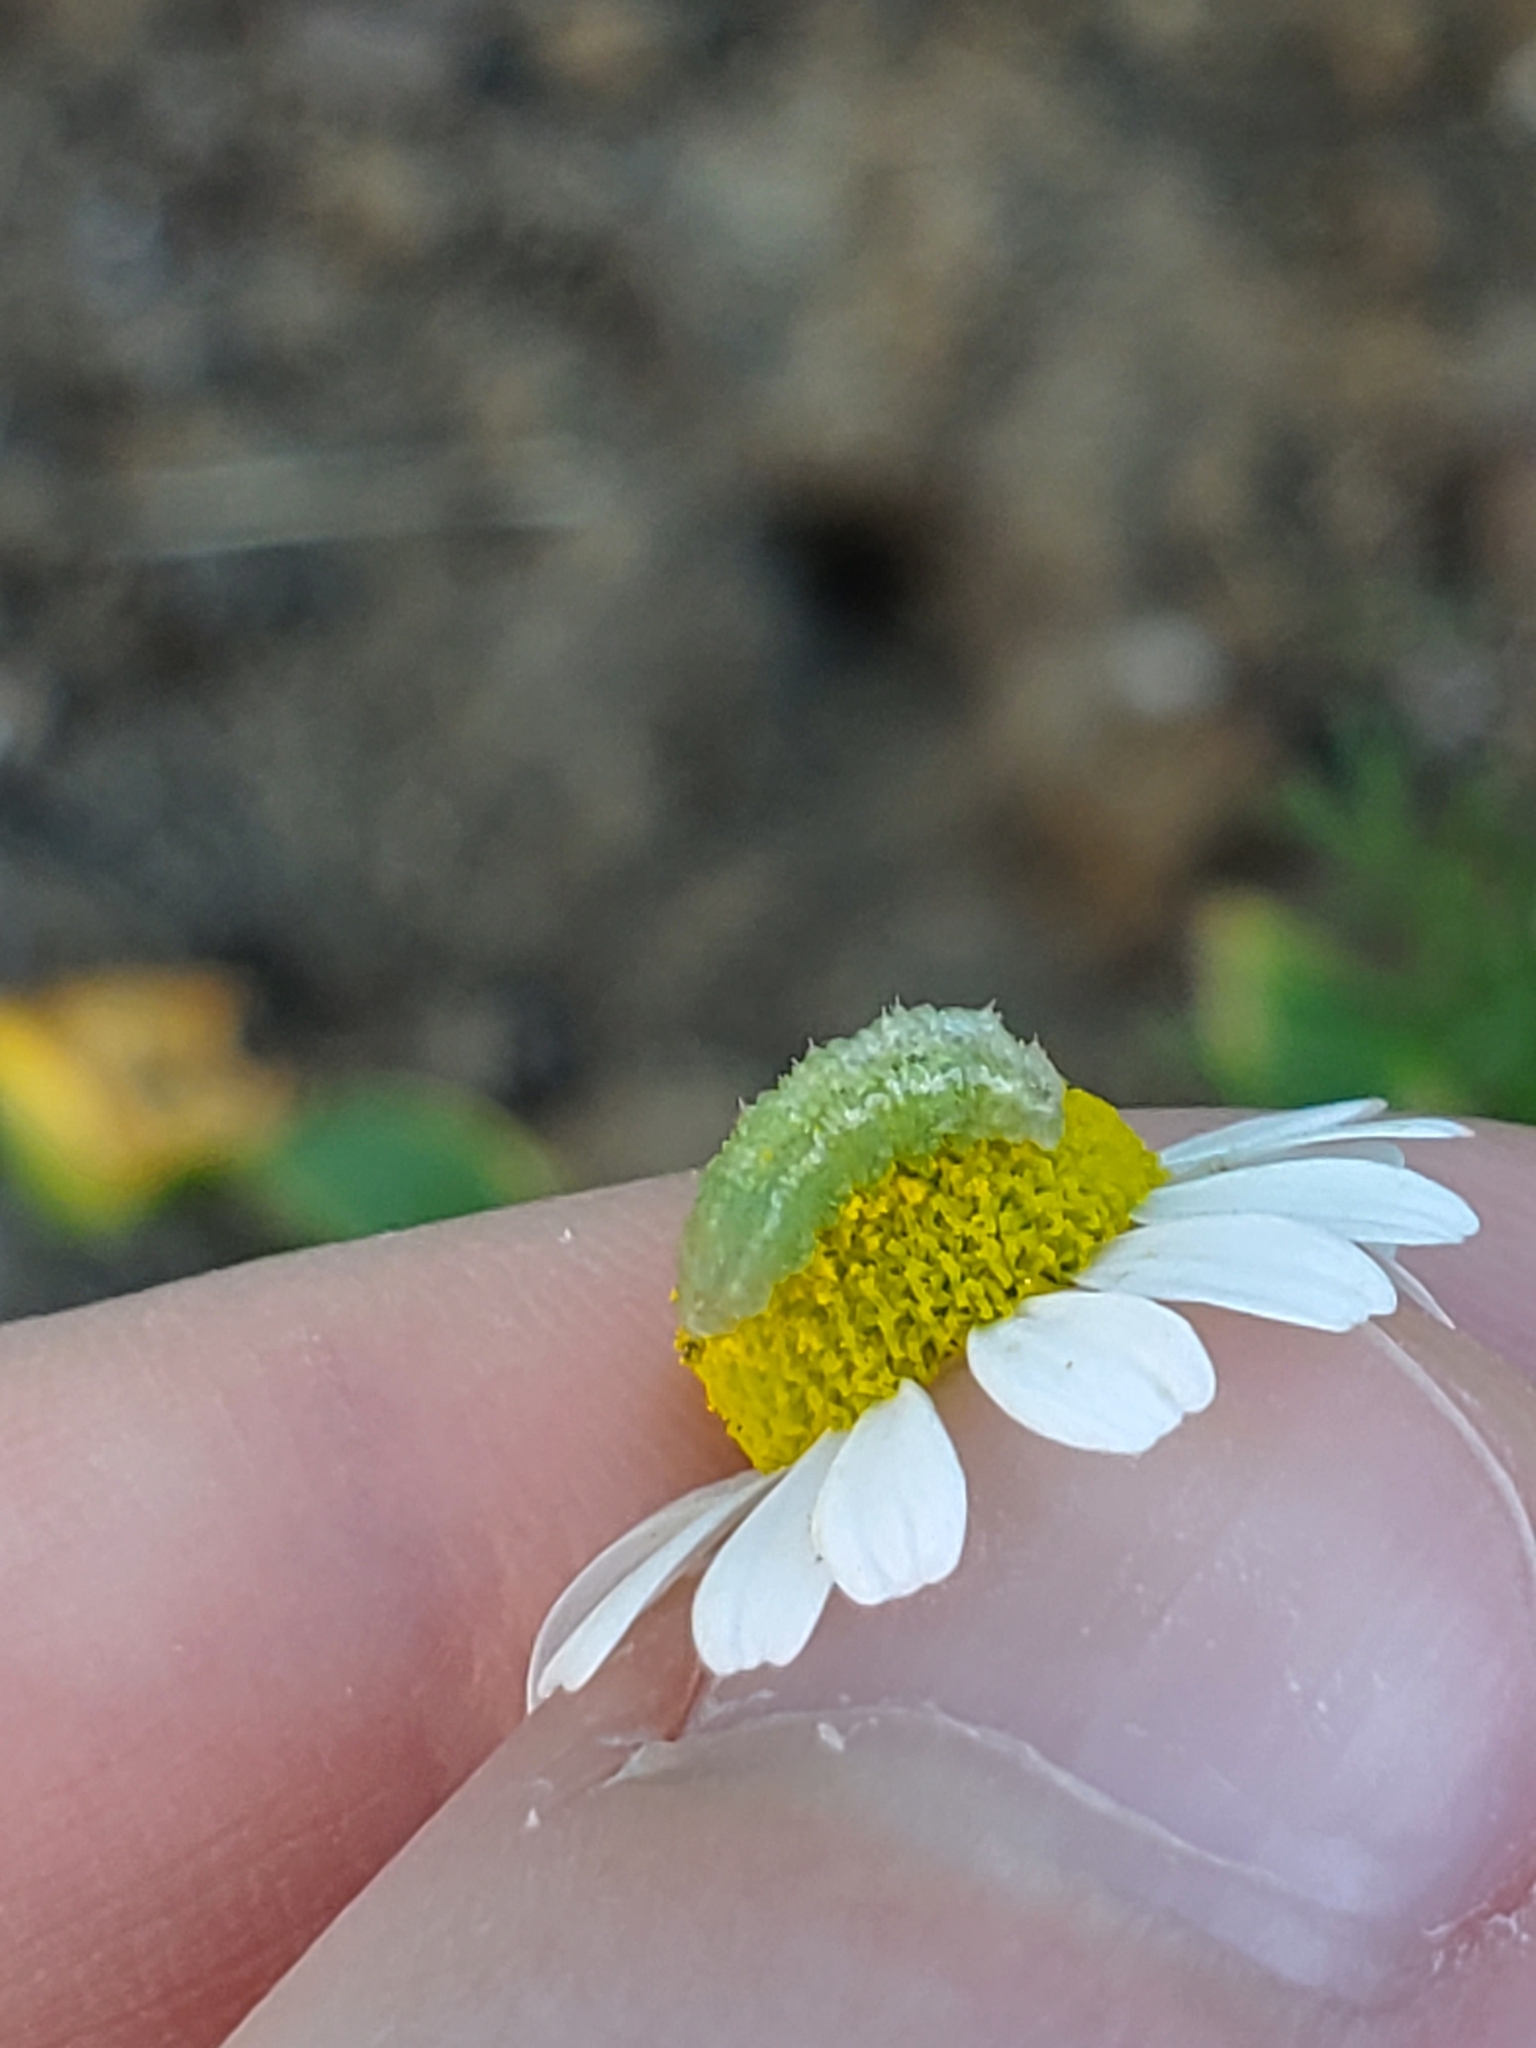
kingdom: Animalia
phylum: Arthropoda
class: Insecta
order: Diptera
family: Syrphidae
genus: Eupeodes
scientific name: Eupeodes volucris
